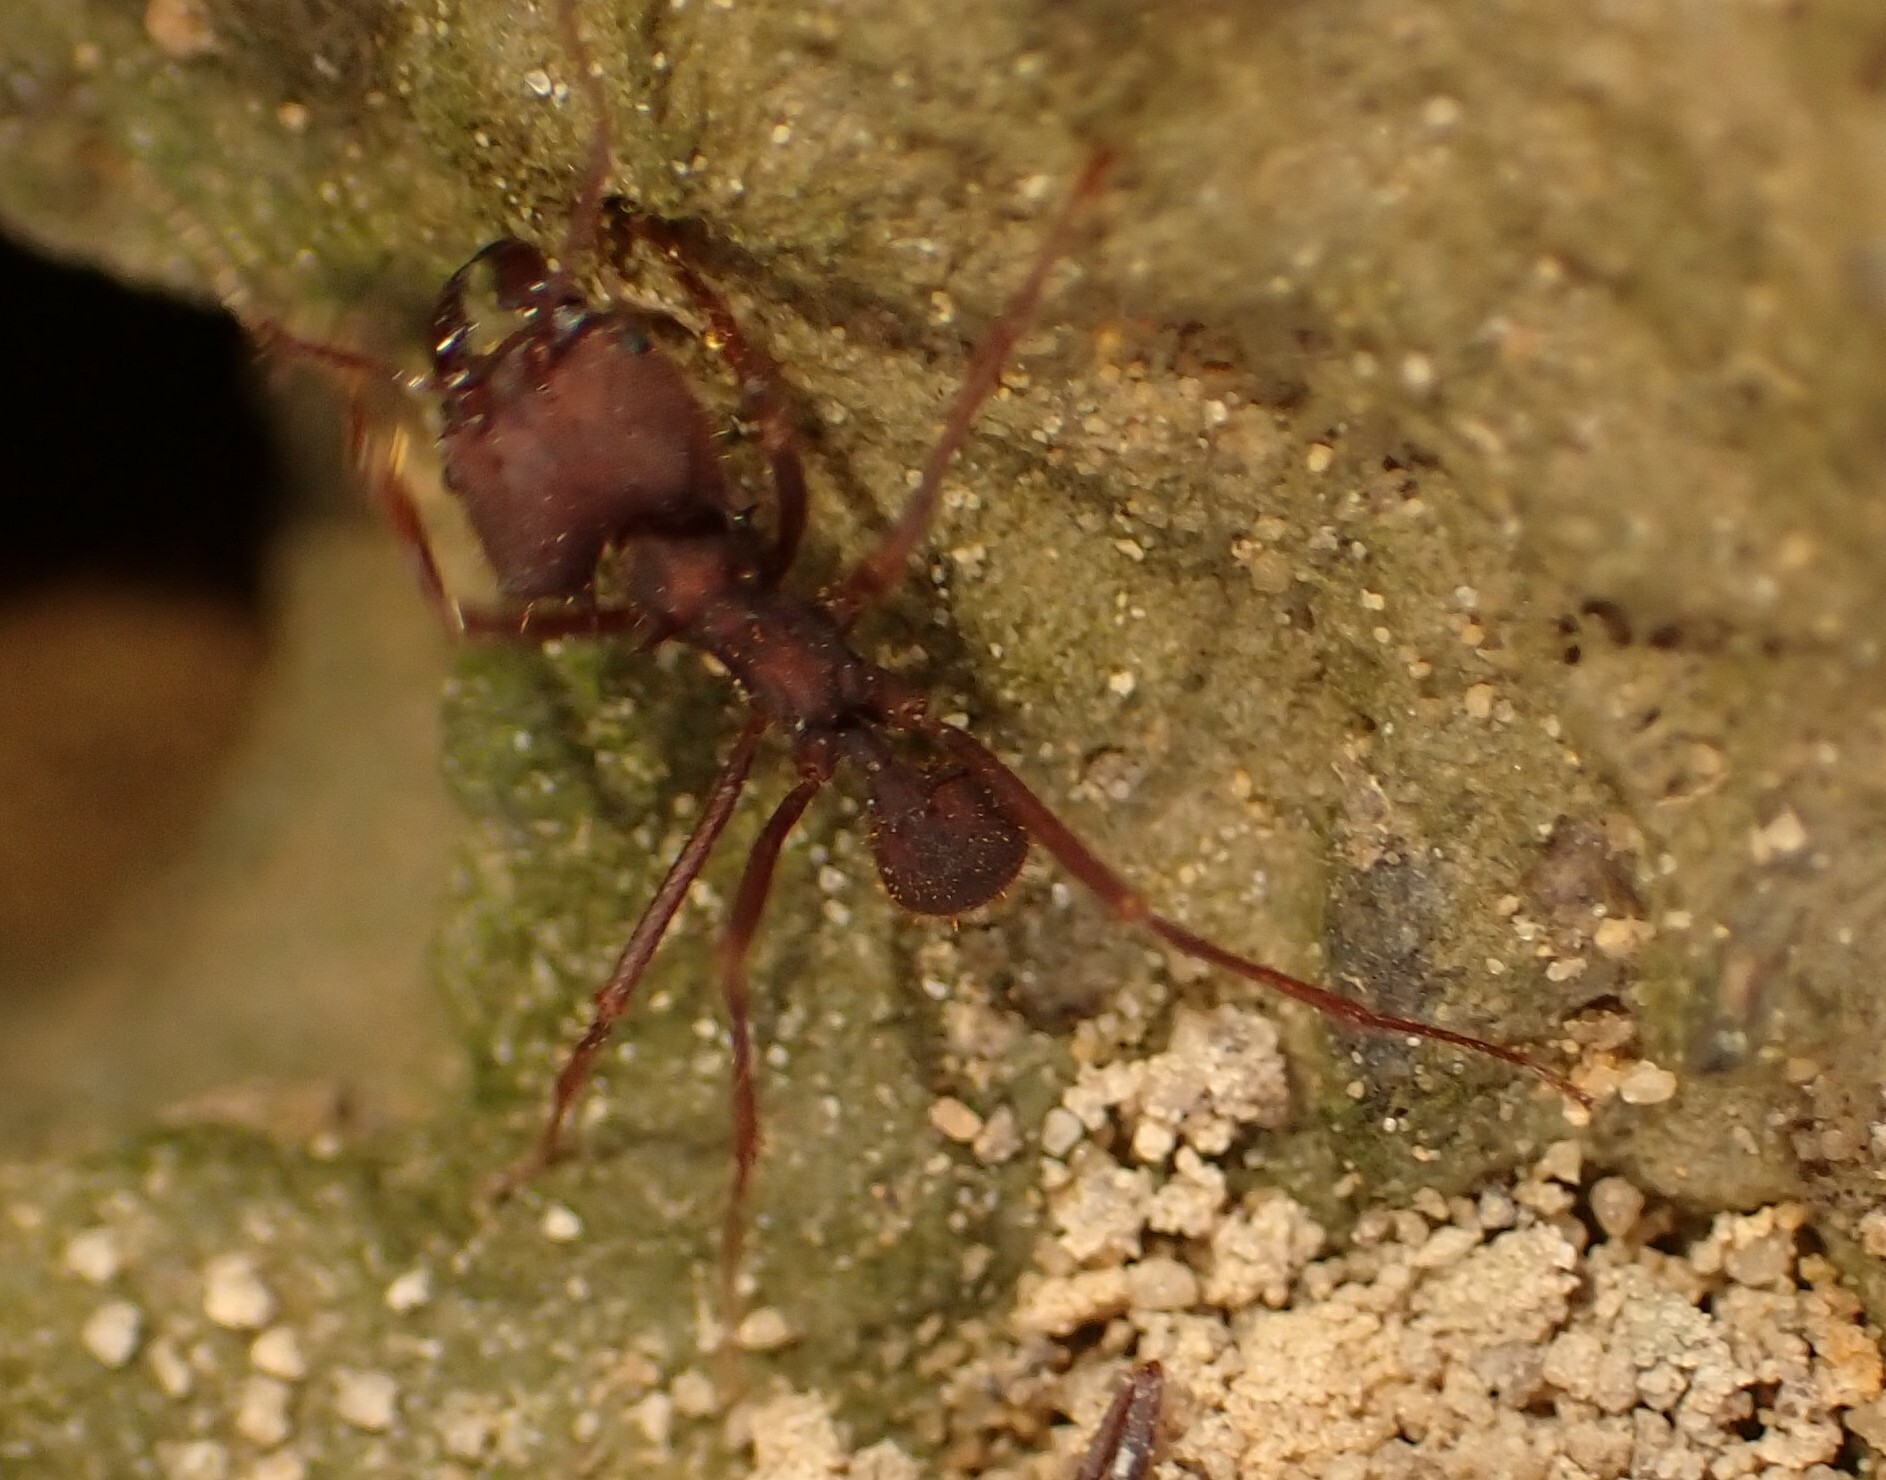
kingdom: Animalia
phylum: Arthropoda
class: Insecta
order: Hymenoptera
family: Formicidae
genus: Atta
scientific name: Atta laevigata
